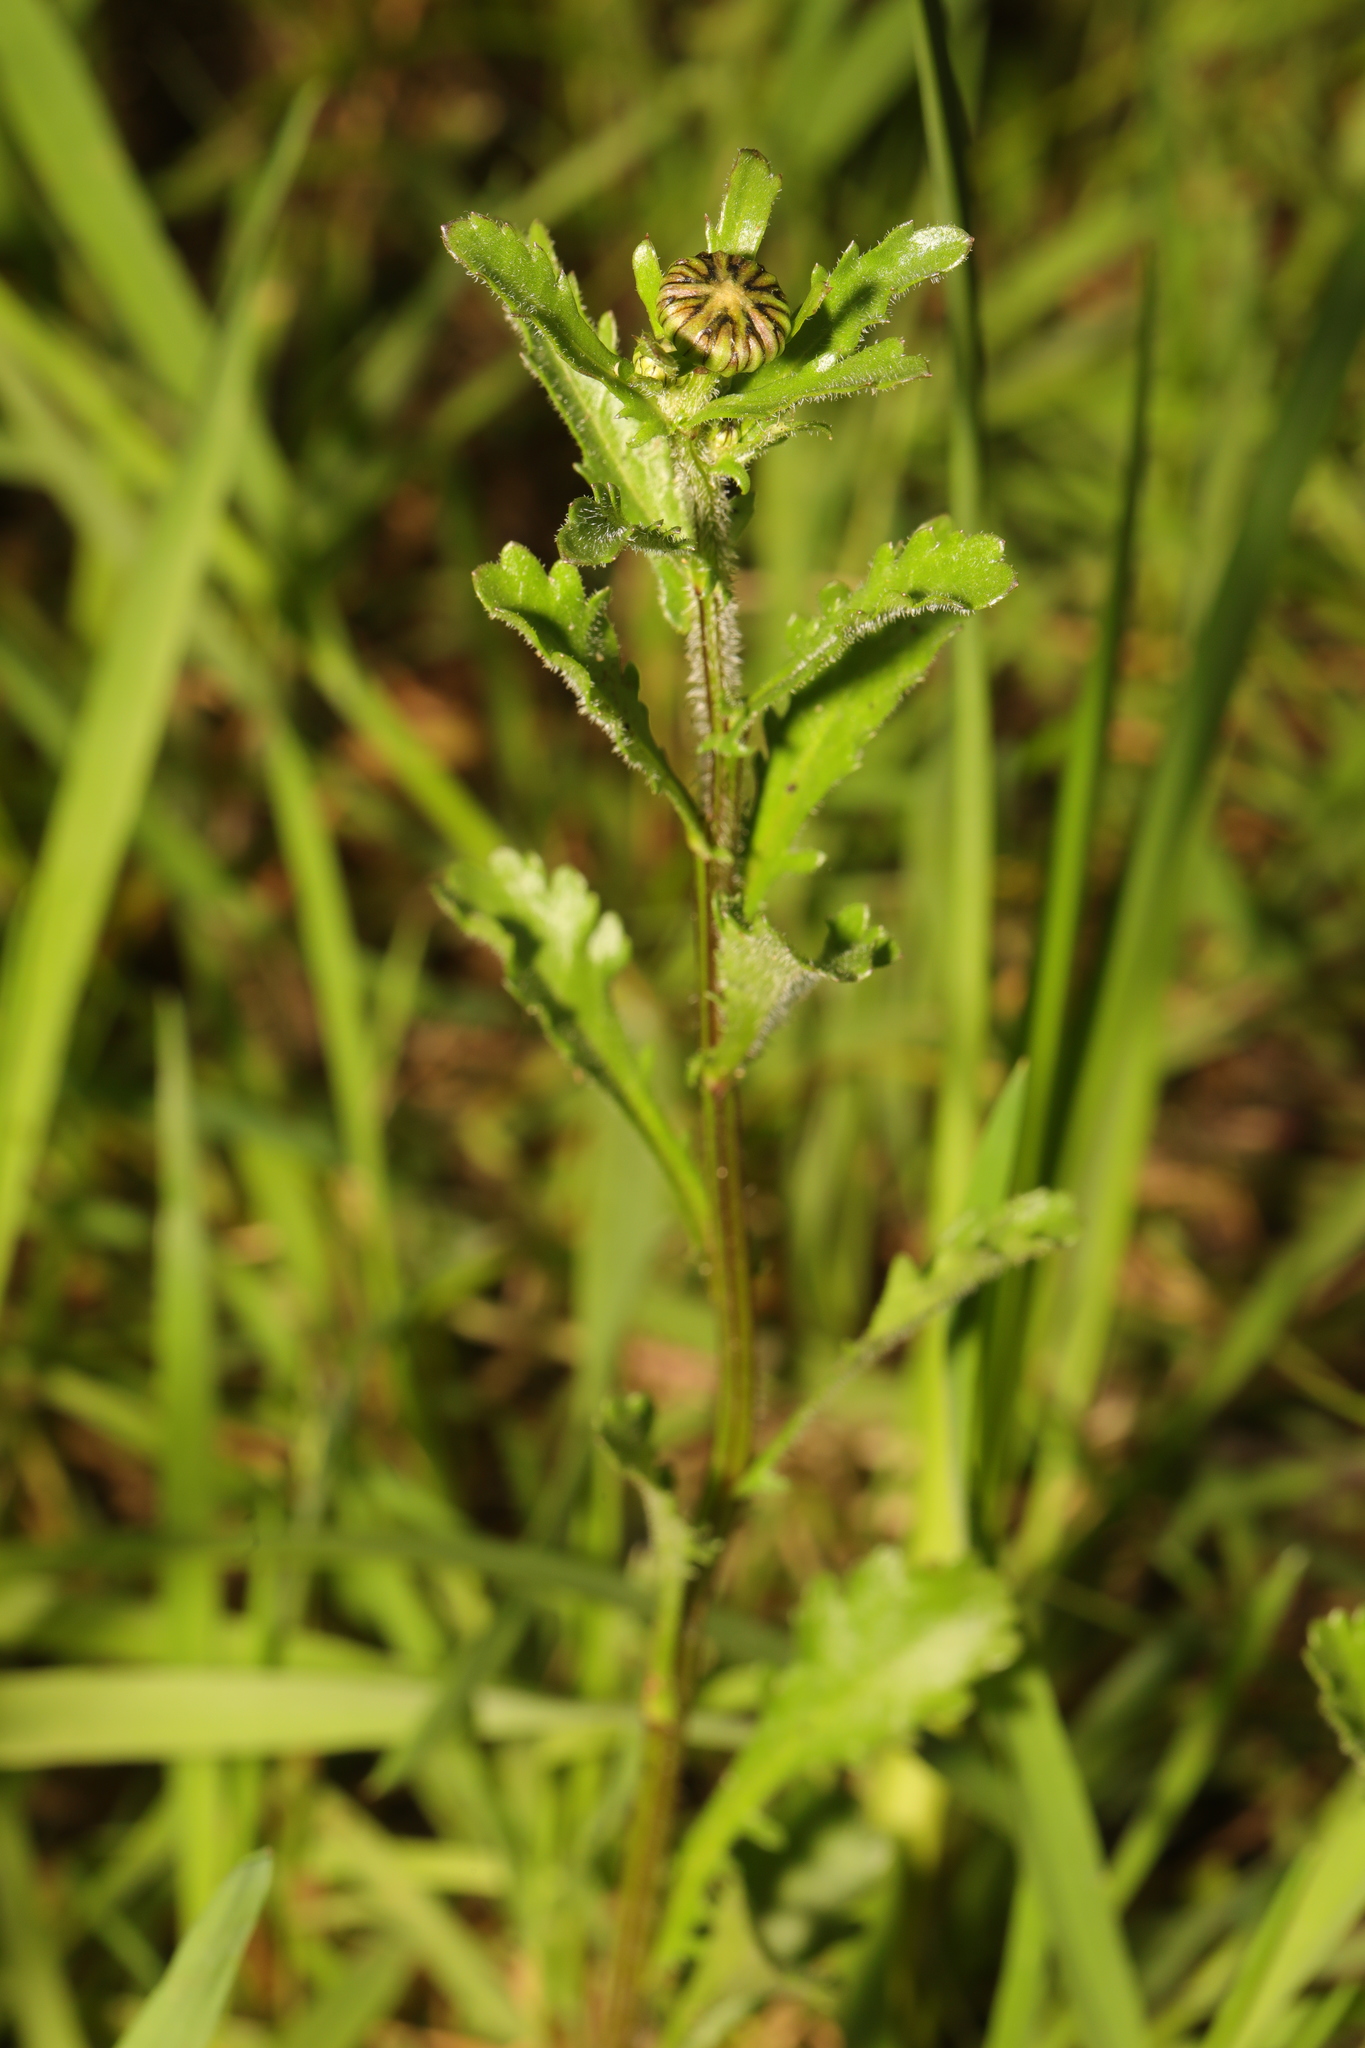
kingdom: Plantae
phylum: Tracheophyta
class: Magnoliopsida
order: Asterales
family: Asteraceae
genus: Leucanthemum
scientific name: Leucanthemum vulgare
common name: Oxeye daisy
